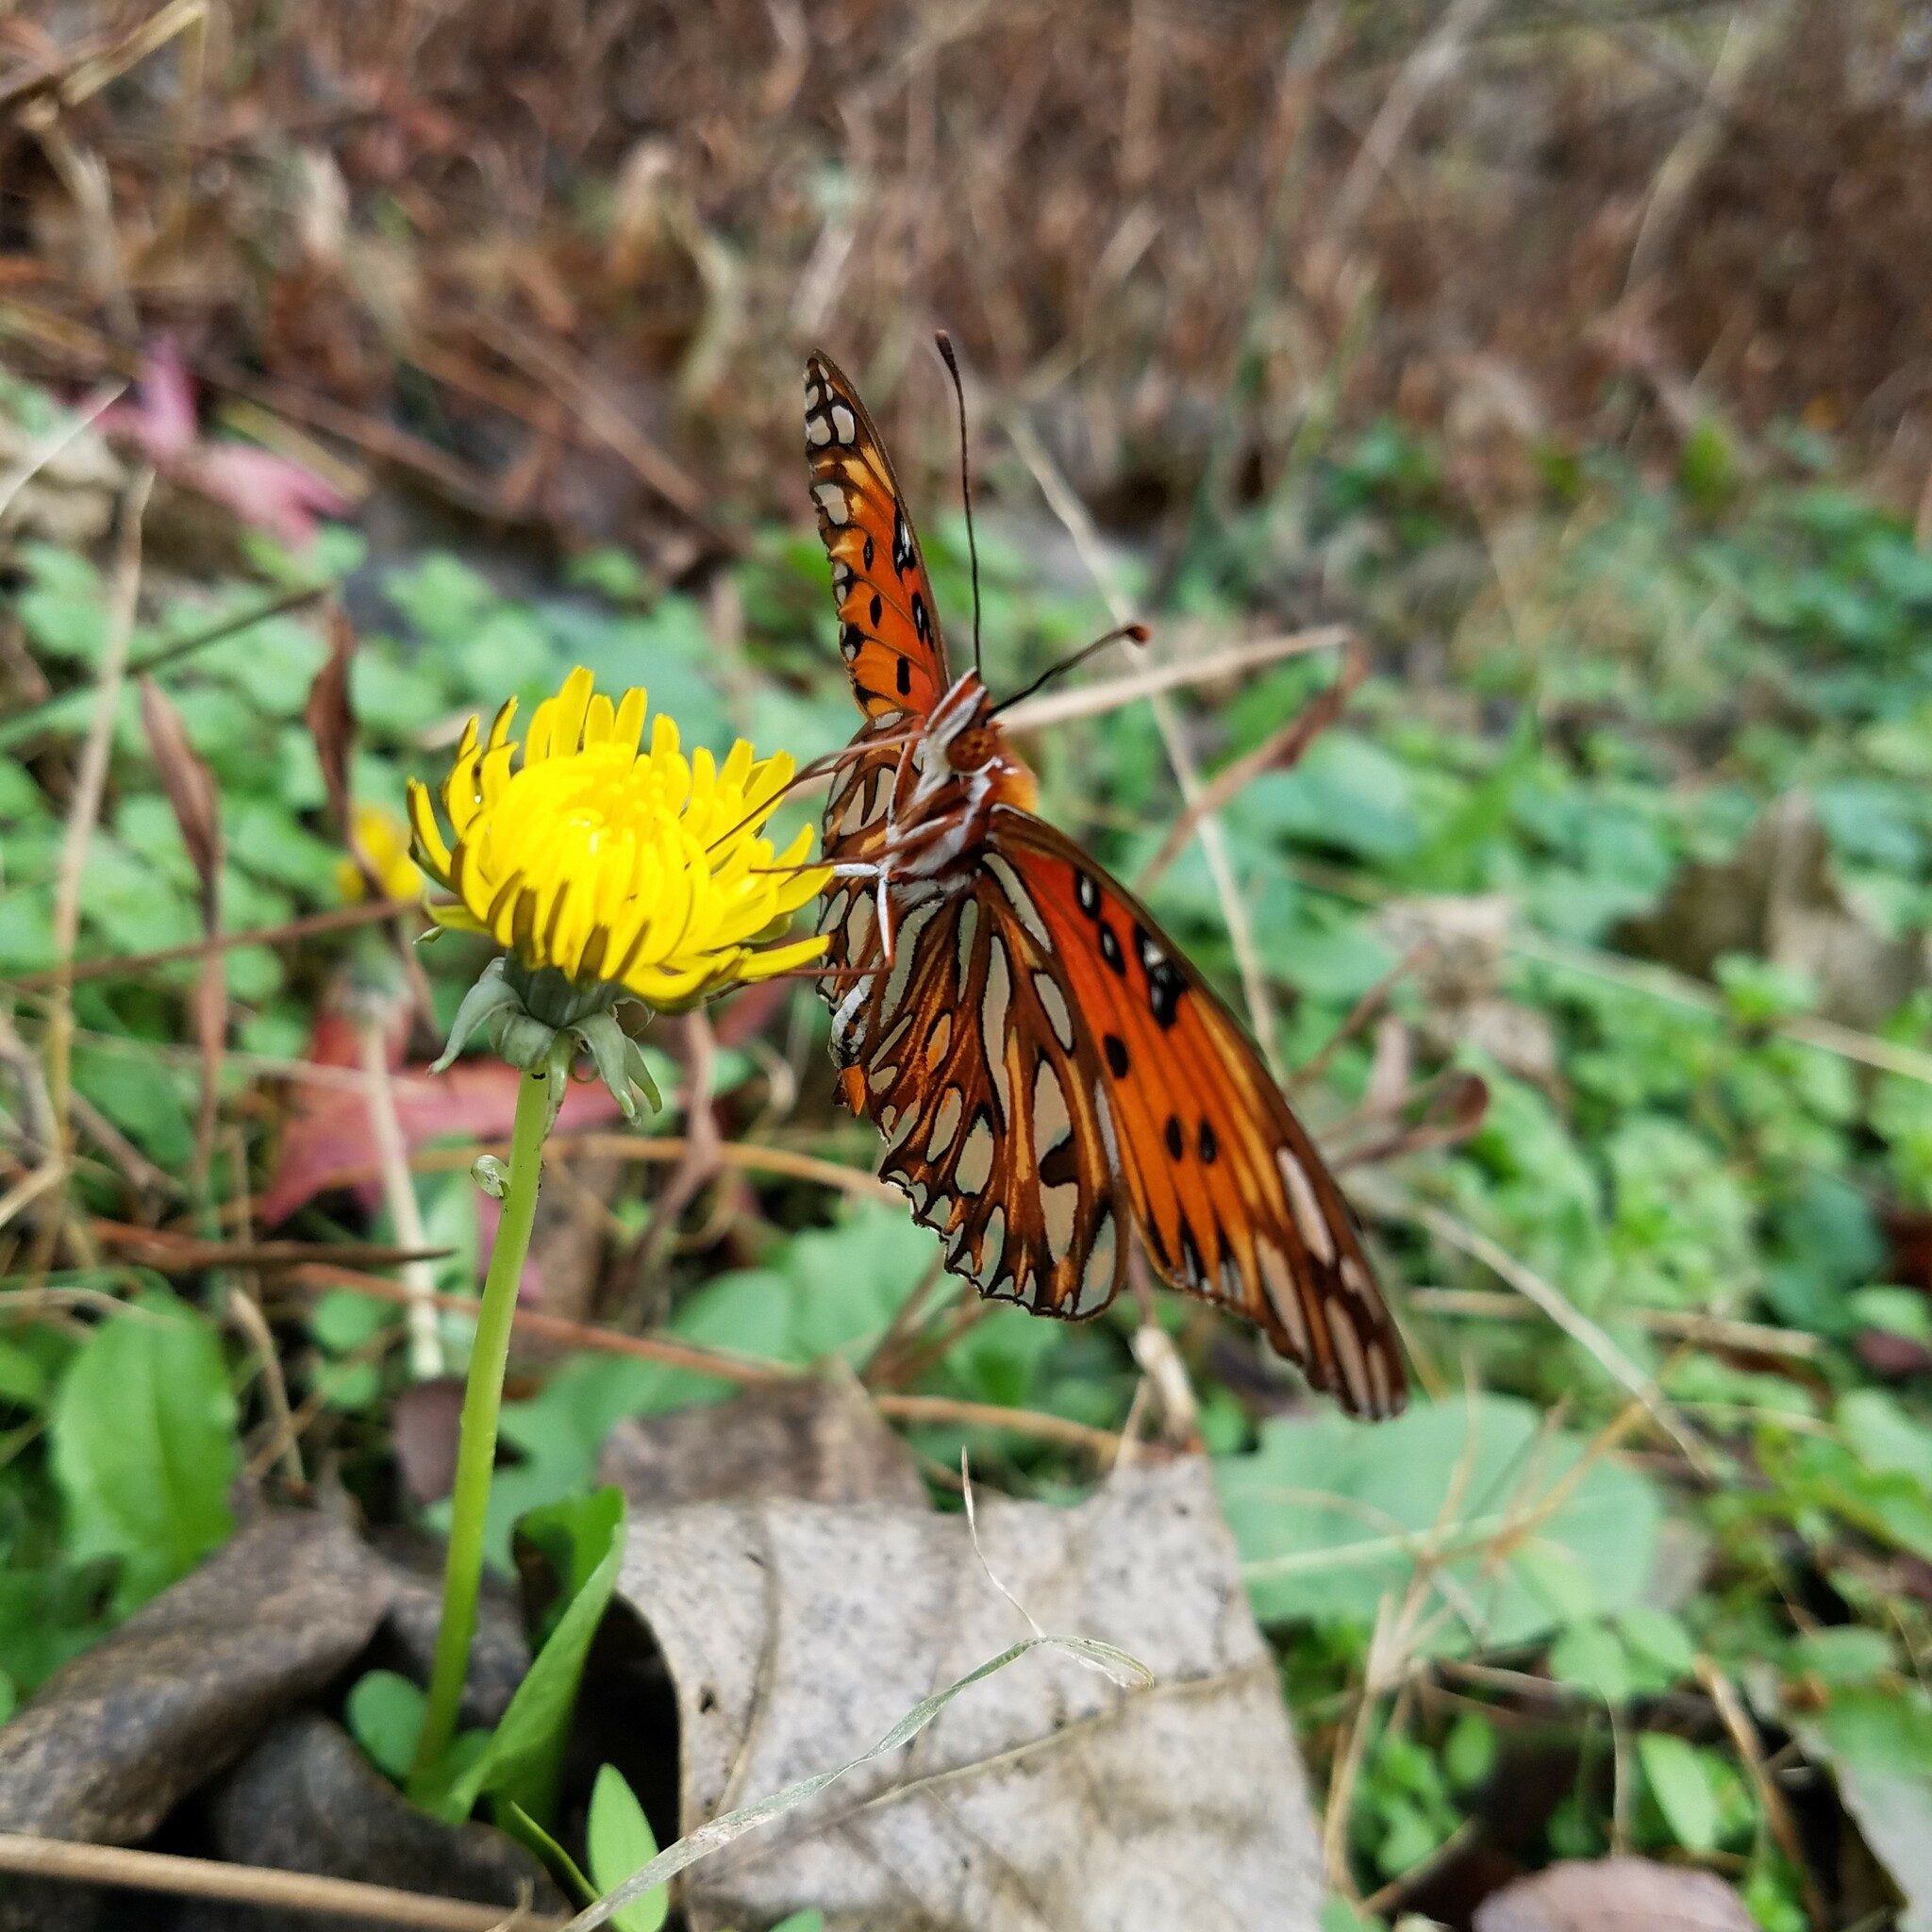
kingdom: Animalia
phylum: Arthropoda
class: Insecta
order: Lepidoptera
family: Nymphalidae
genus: Dione
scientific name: Dione vanillae
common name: Gulf fritillary
